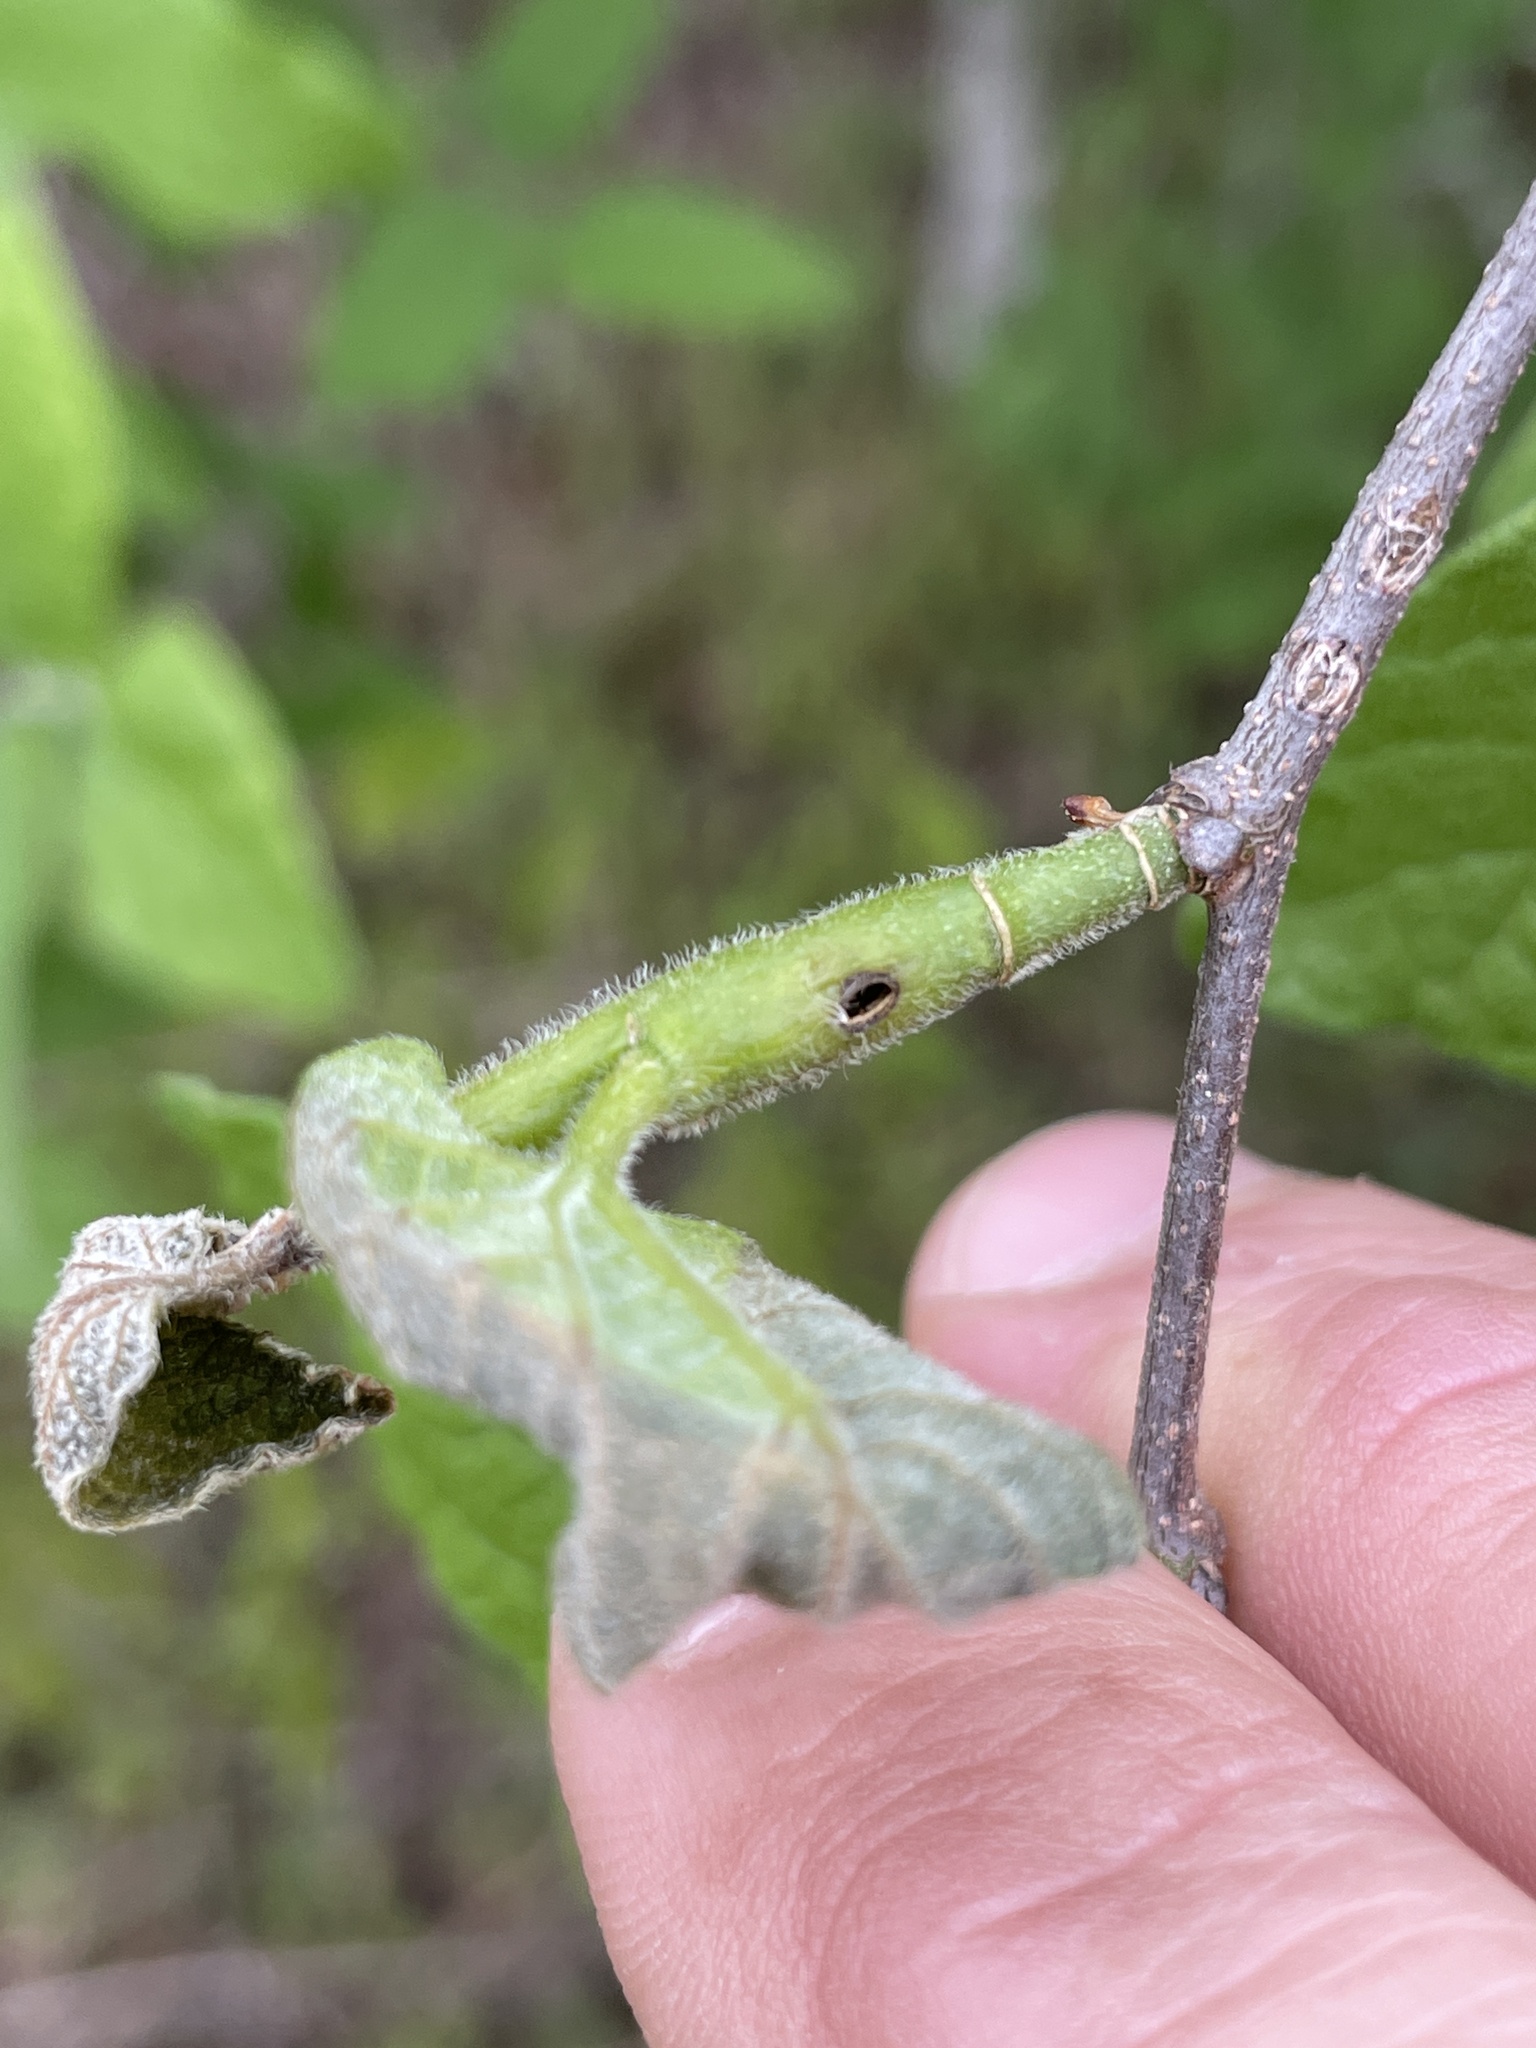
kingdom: Animalia
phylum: Arthropoda
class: Insecta
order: Diptera
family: Agromyzidae
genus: Agromyza
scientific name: Agromyza deserta
